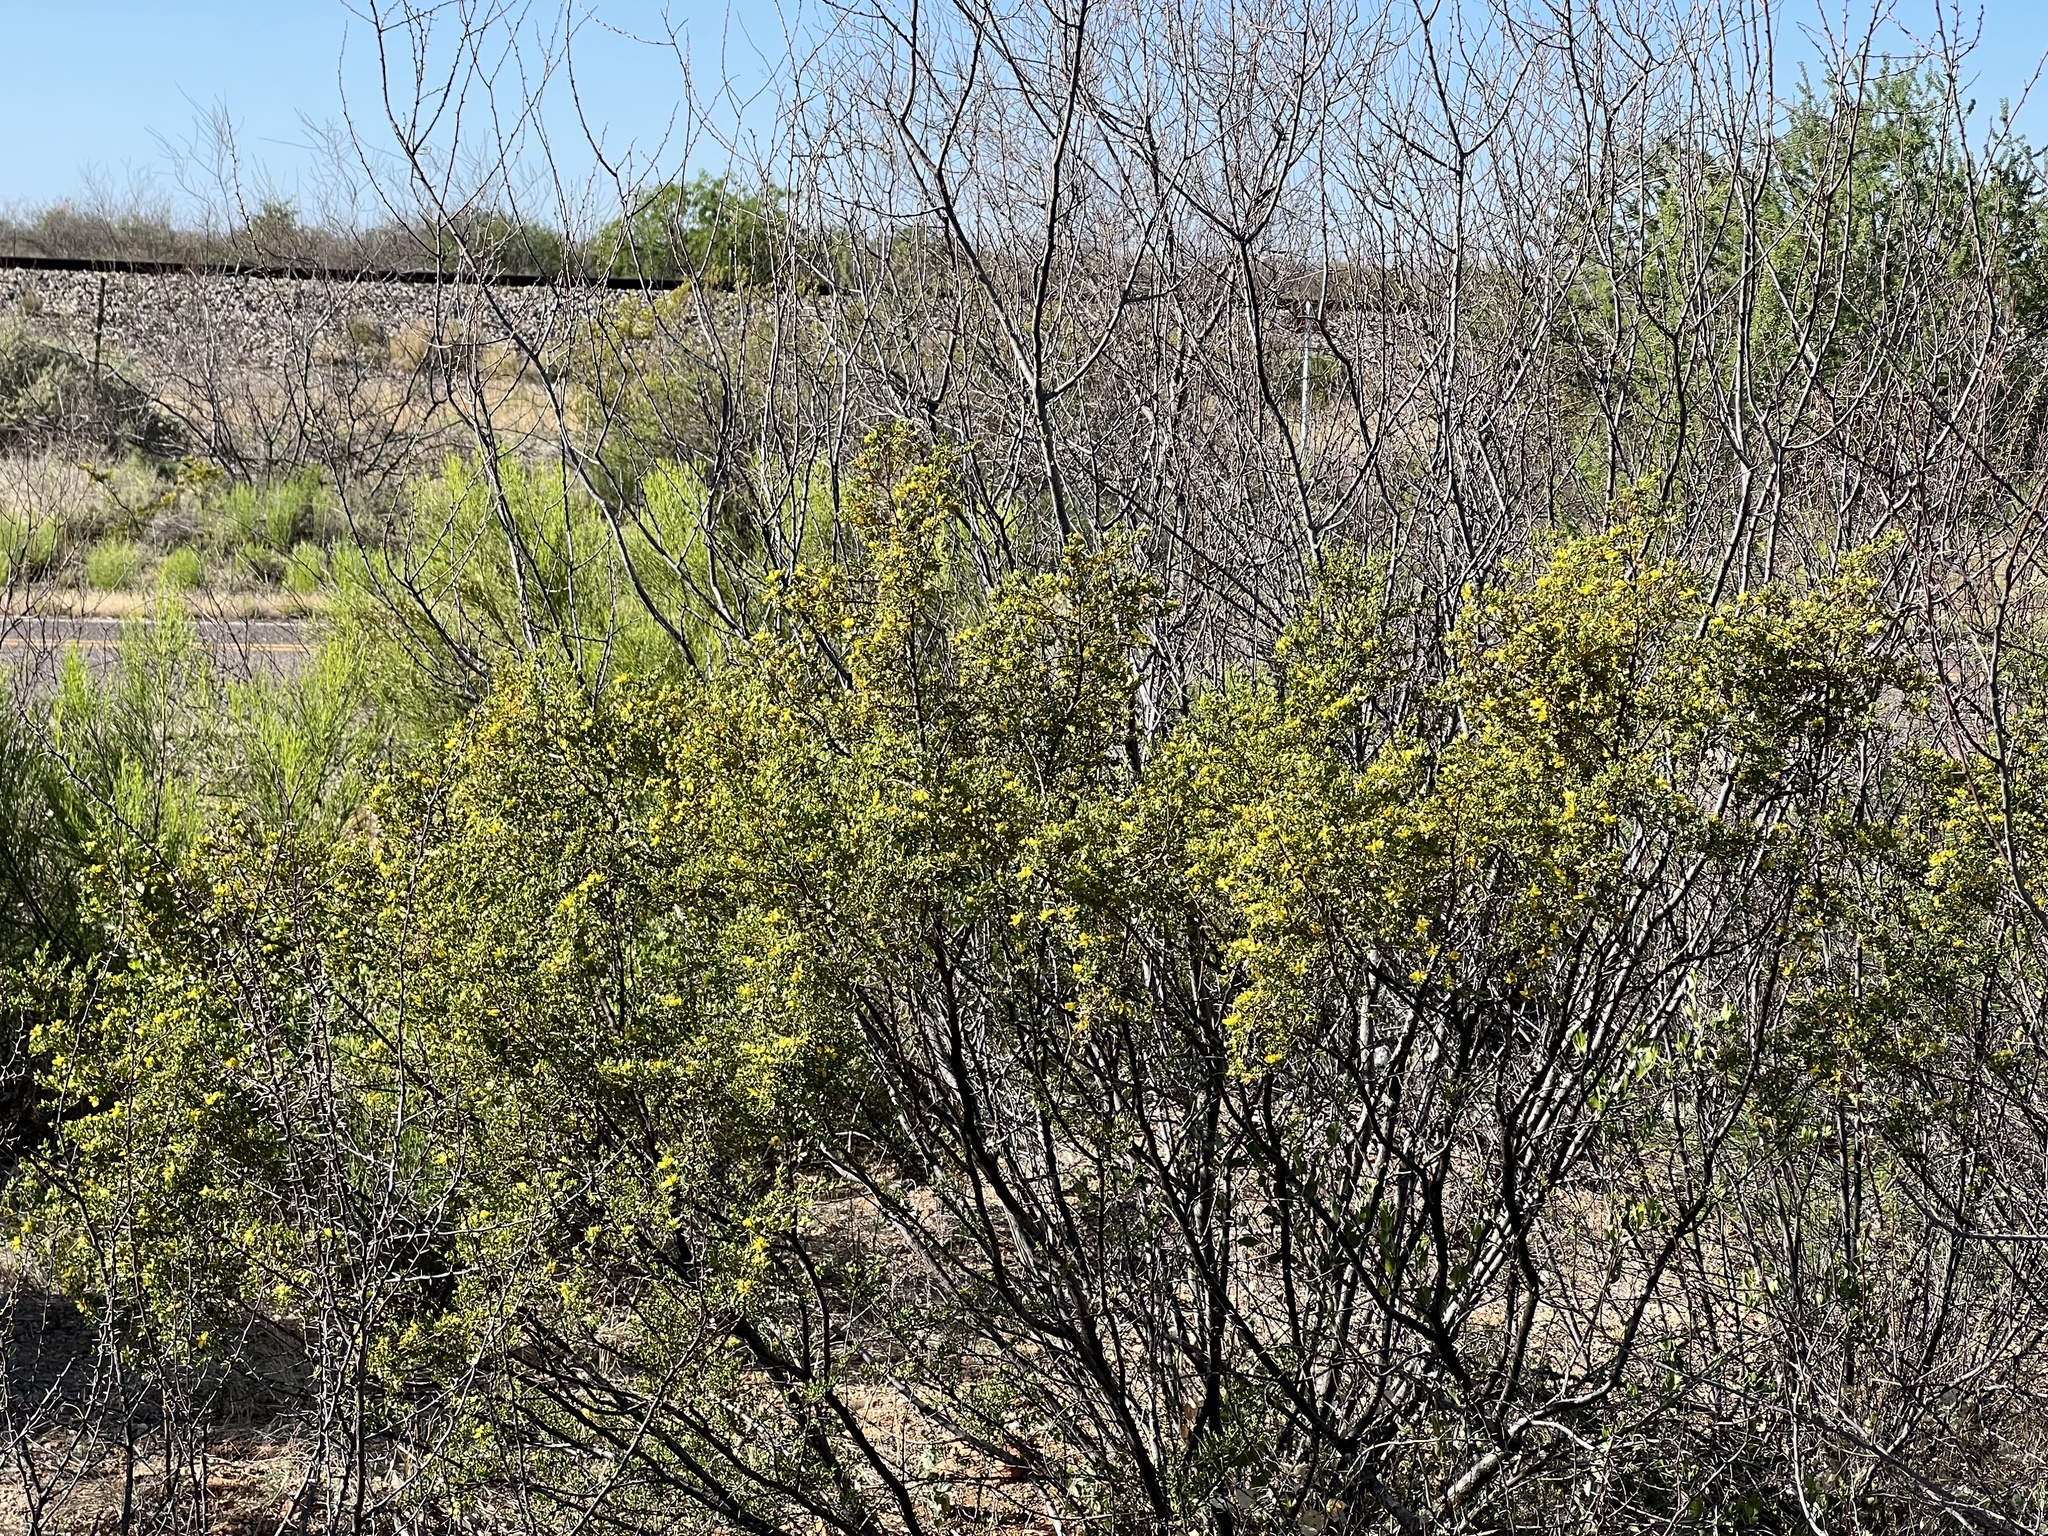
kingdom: Plantae
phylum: Tracheophyta
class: Magnoliopsida
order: Zygophyllales
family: Zygophyllaceae
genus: Larrea
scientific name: Larrea tridentata
